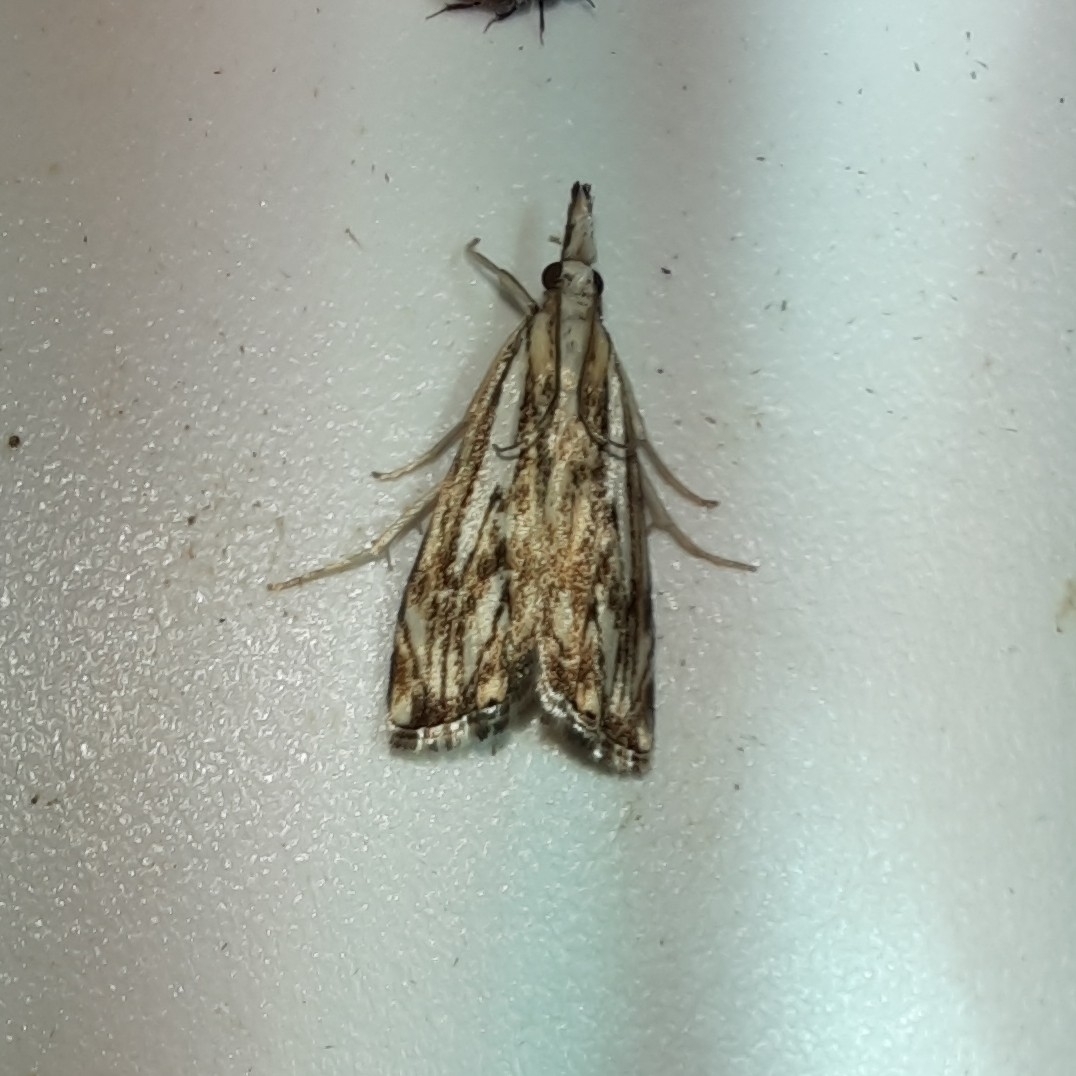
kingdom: Animalia
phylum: Arthropoda
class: Insecta
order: Lepidoptera
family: Crambidae
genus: Catoptria
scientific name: Catoptria falsella
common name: Chequered grass-veneer
